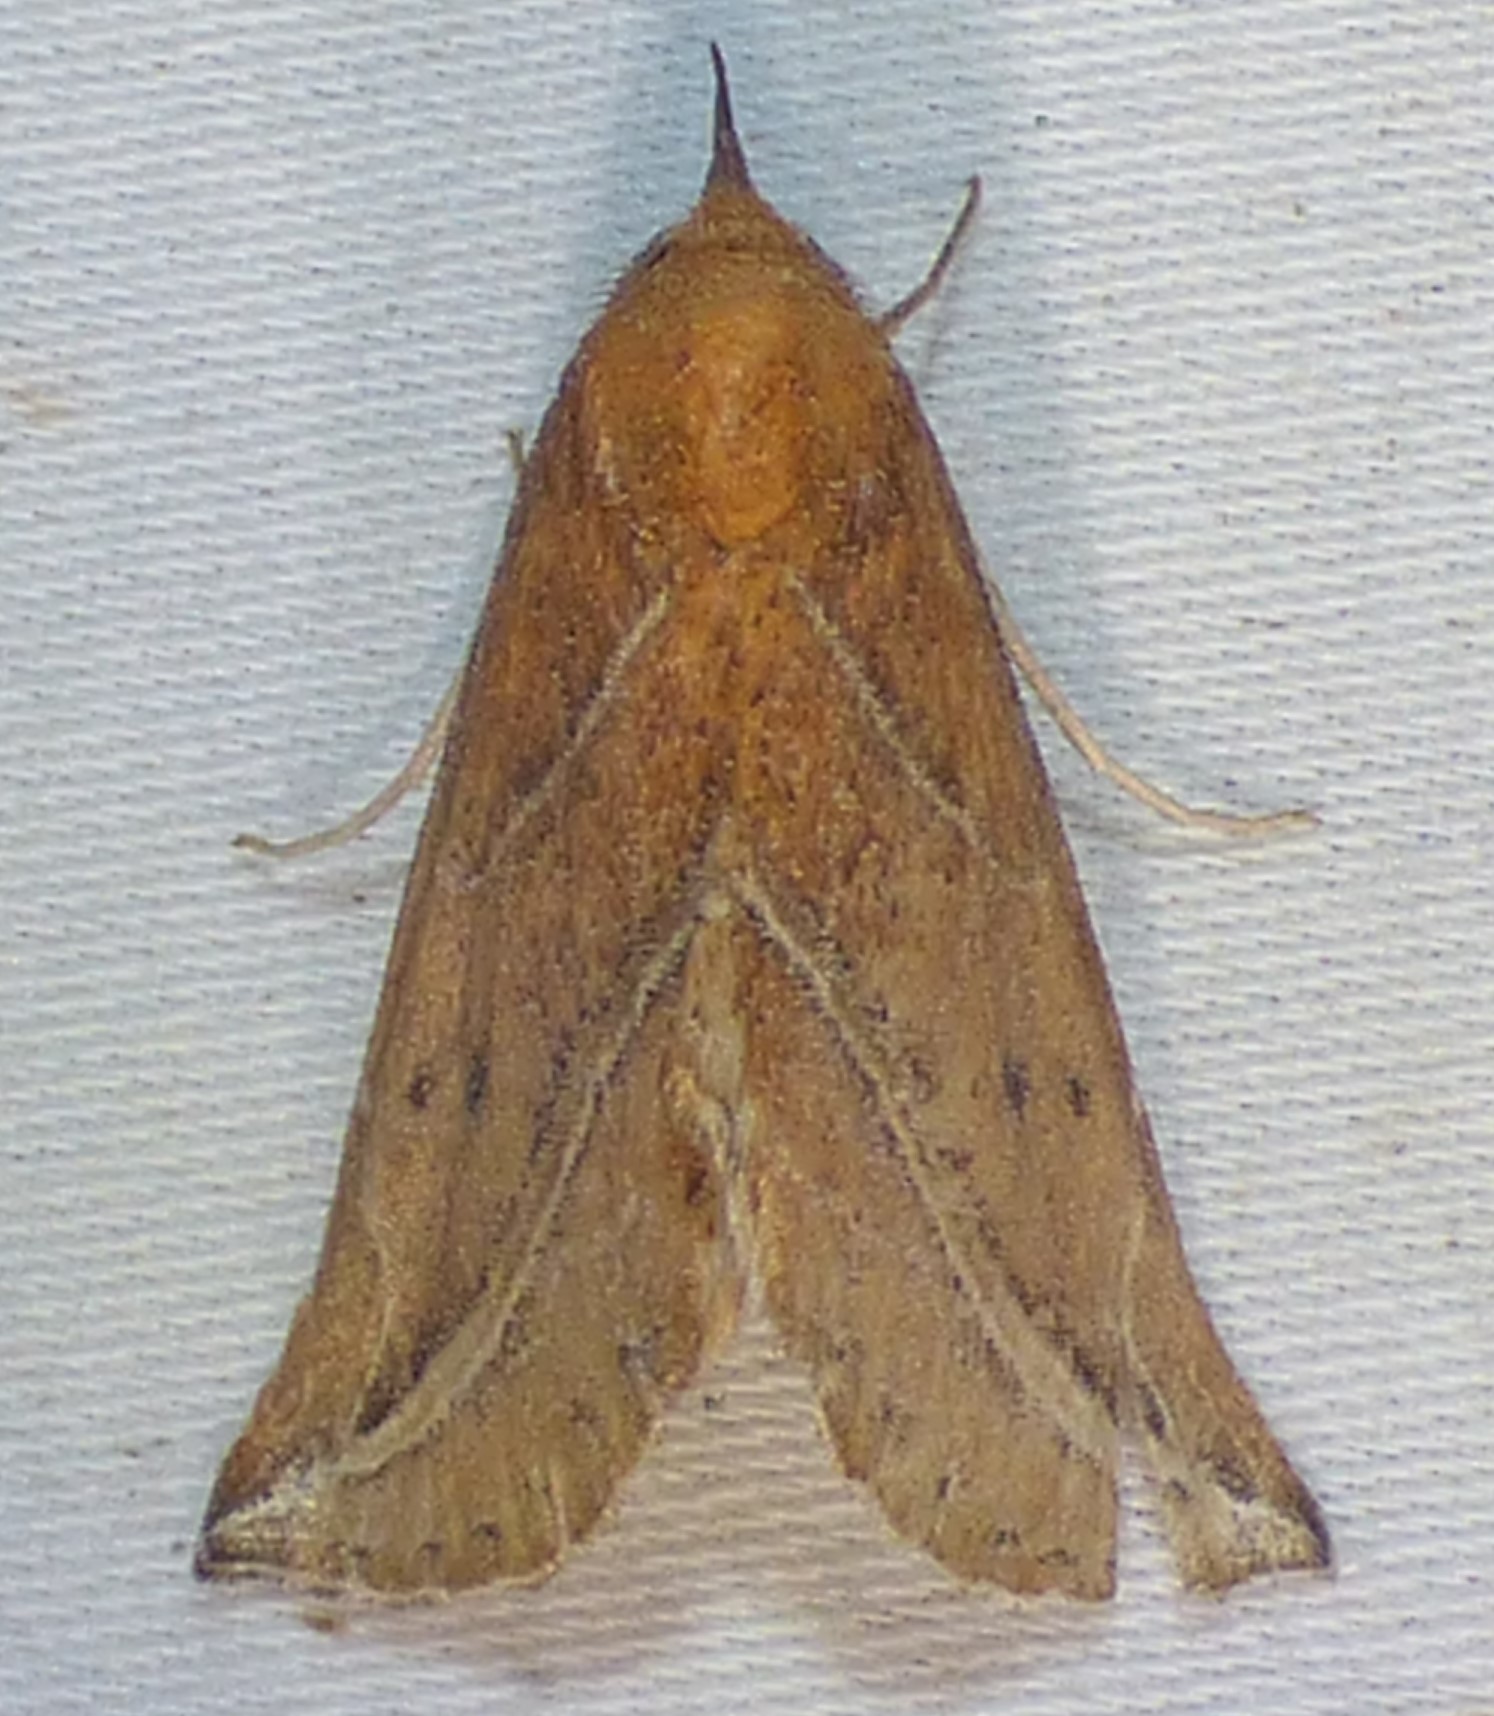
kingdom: Animalia
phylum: Arthropoda
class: Insecta
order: Lepidoptera
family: Erebidae
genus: Phyprosopus
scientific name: Phyprosopus callitrichoides
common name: Curved-lined owlet
